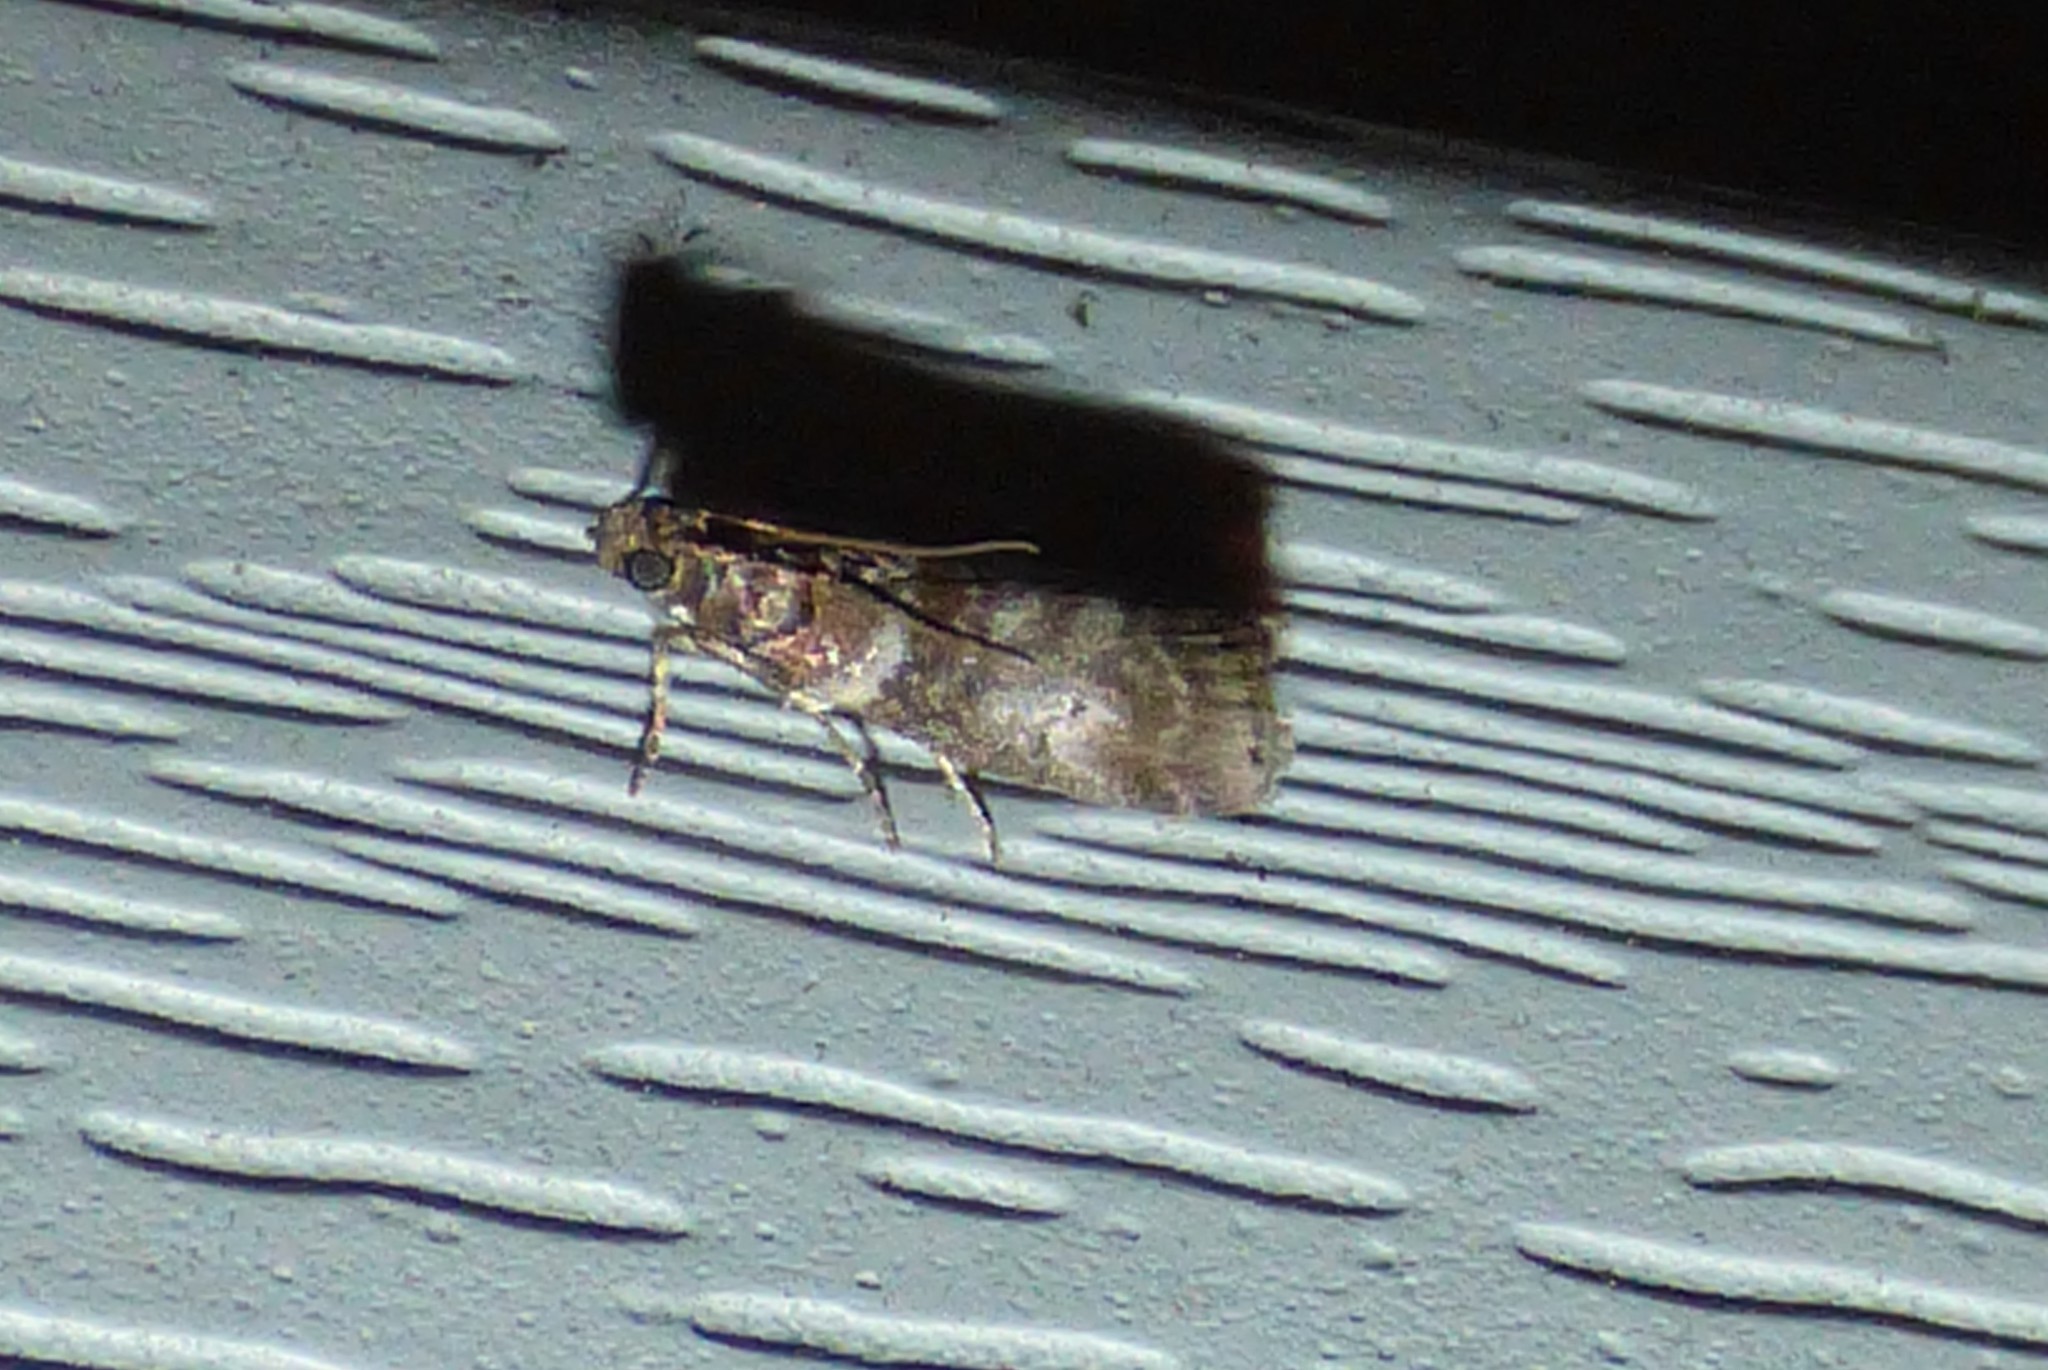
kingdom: Animalia
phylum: Arthropoda
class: Insecta
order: Lepidoptera
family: Pyralidae
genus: Sciota
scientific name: Sciota uvinella
